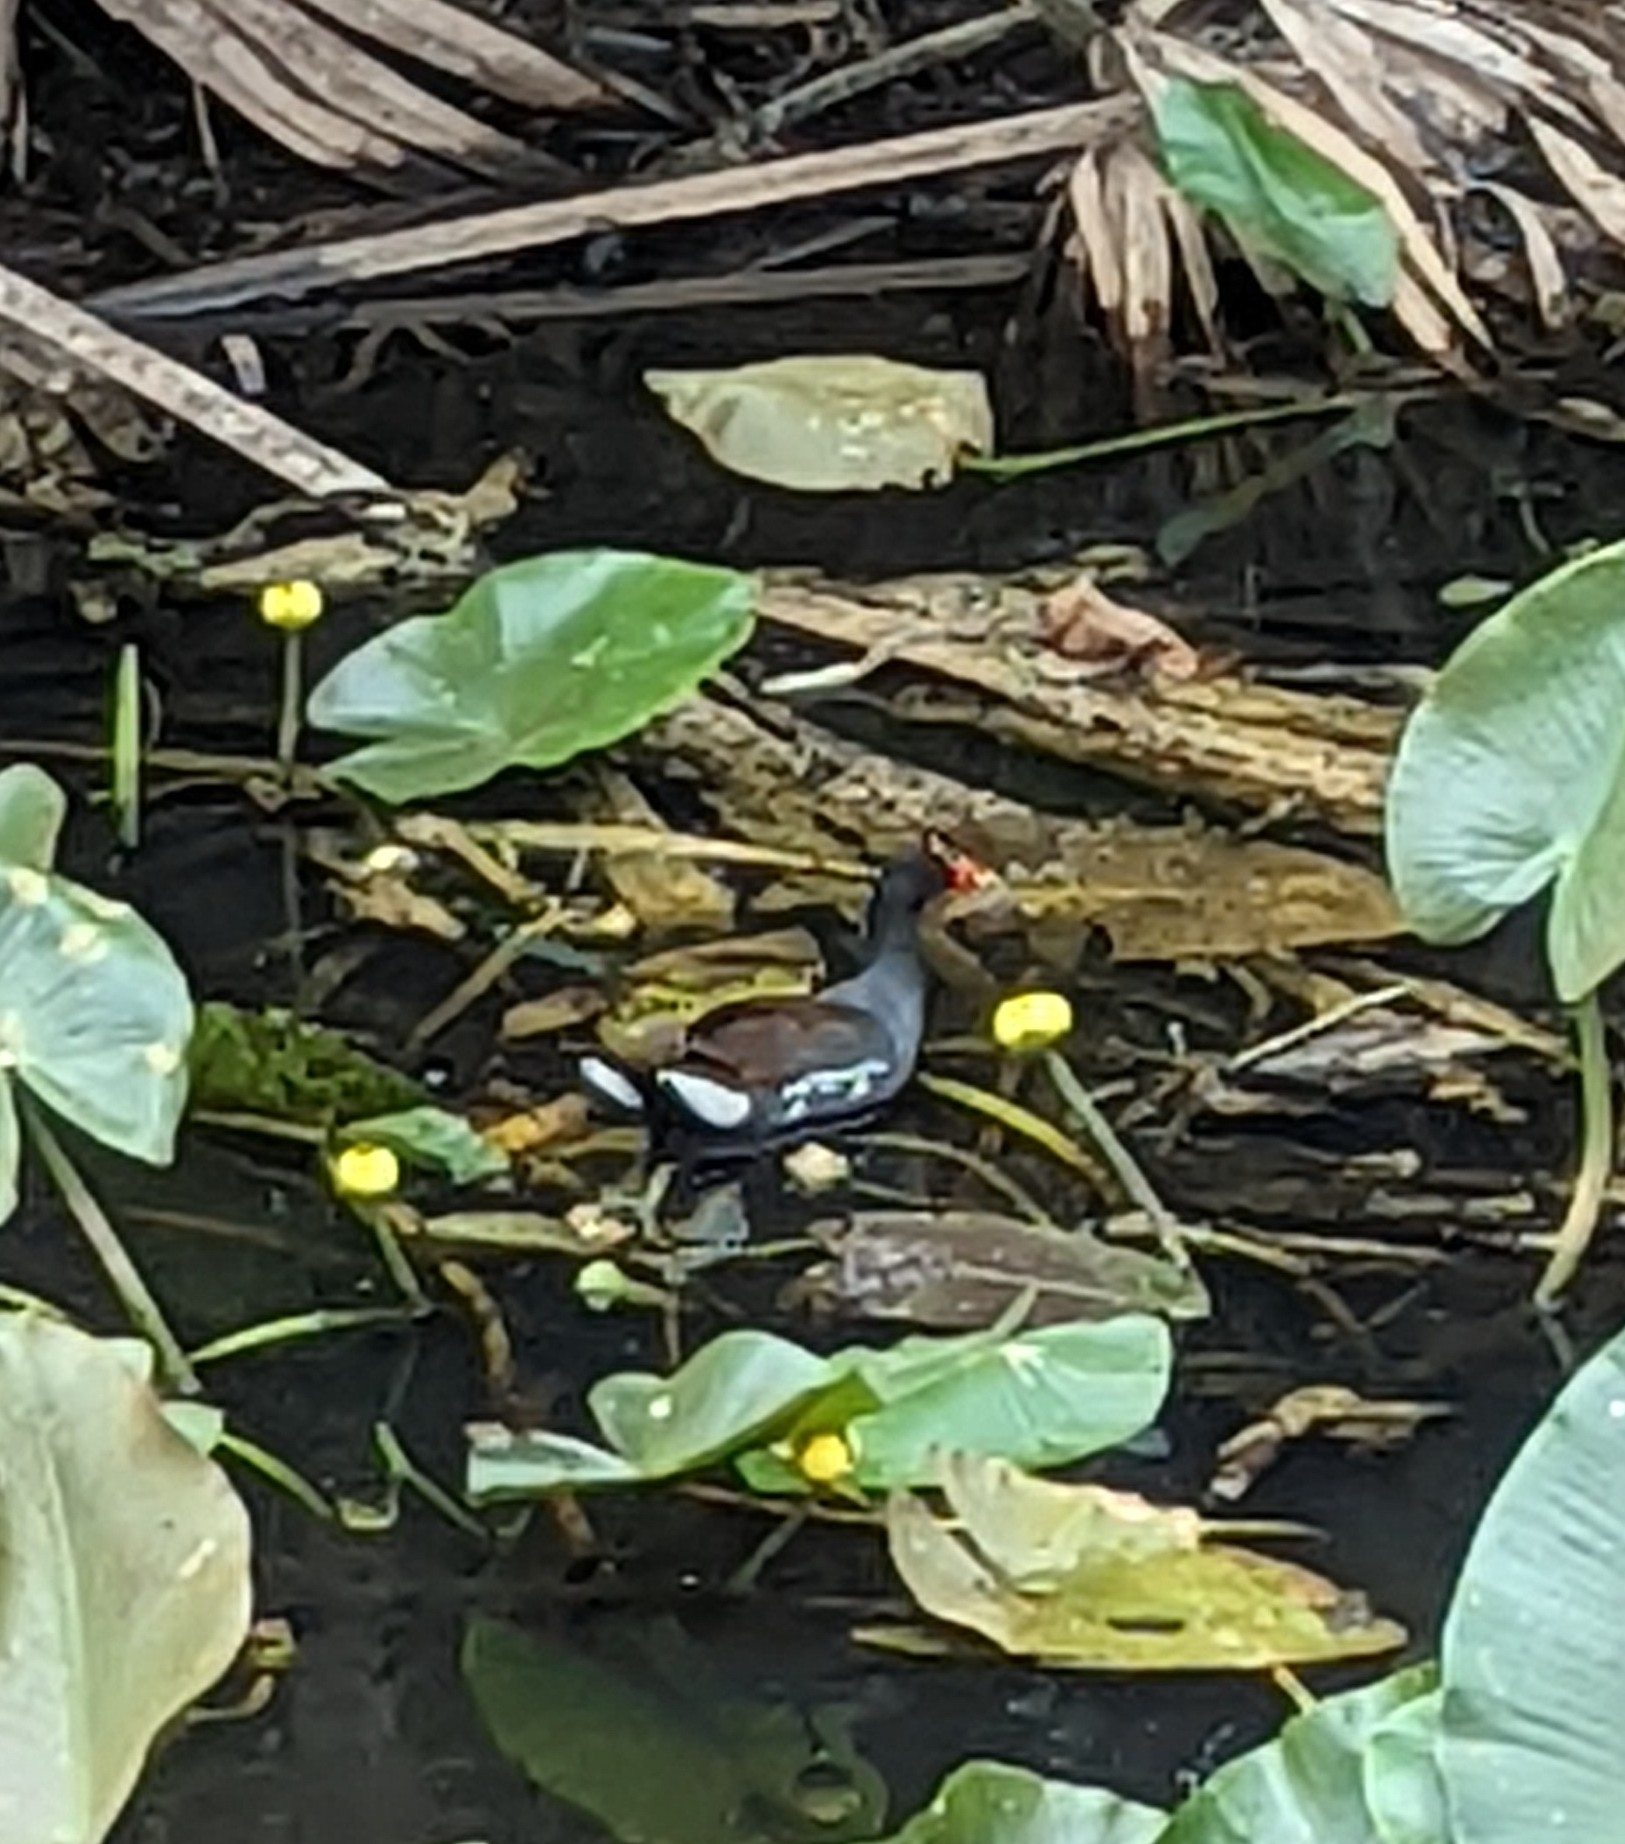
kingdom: Animalia
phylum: Chordata
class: Aves
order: Gruiformes
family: Rallidae
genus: Gallinula
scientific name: Gallinula chloropus
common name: Common moorhen
